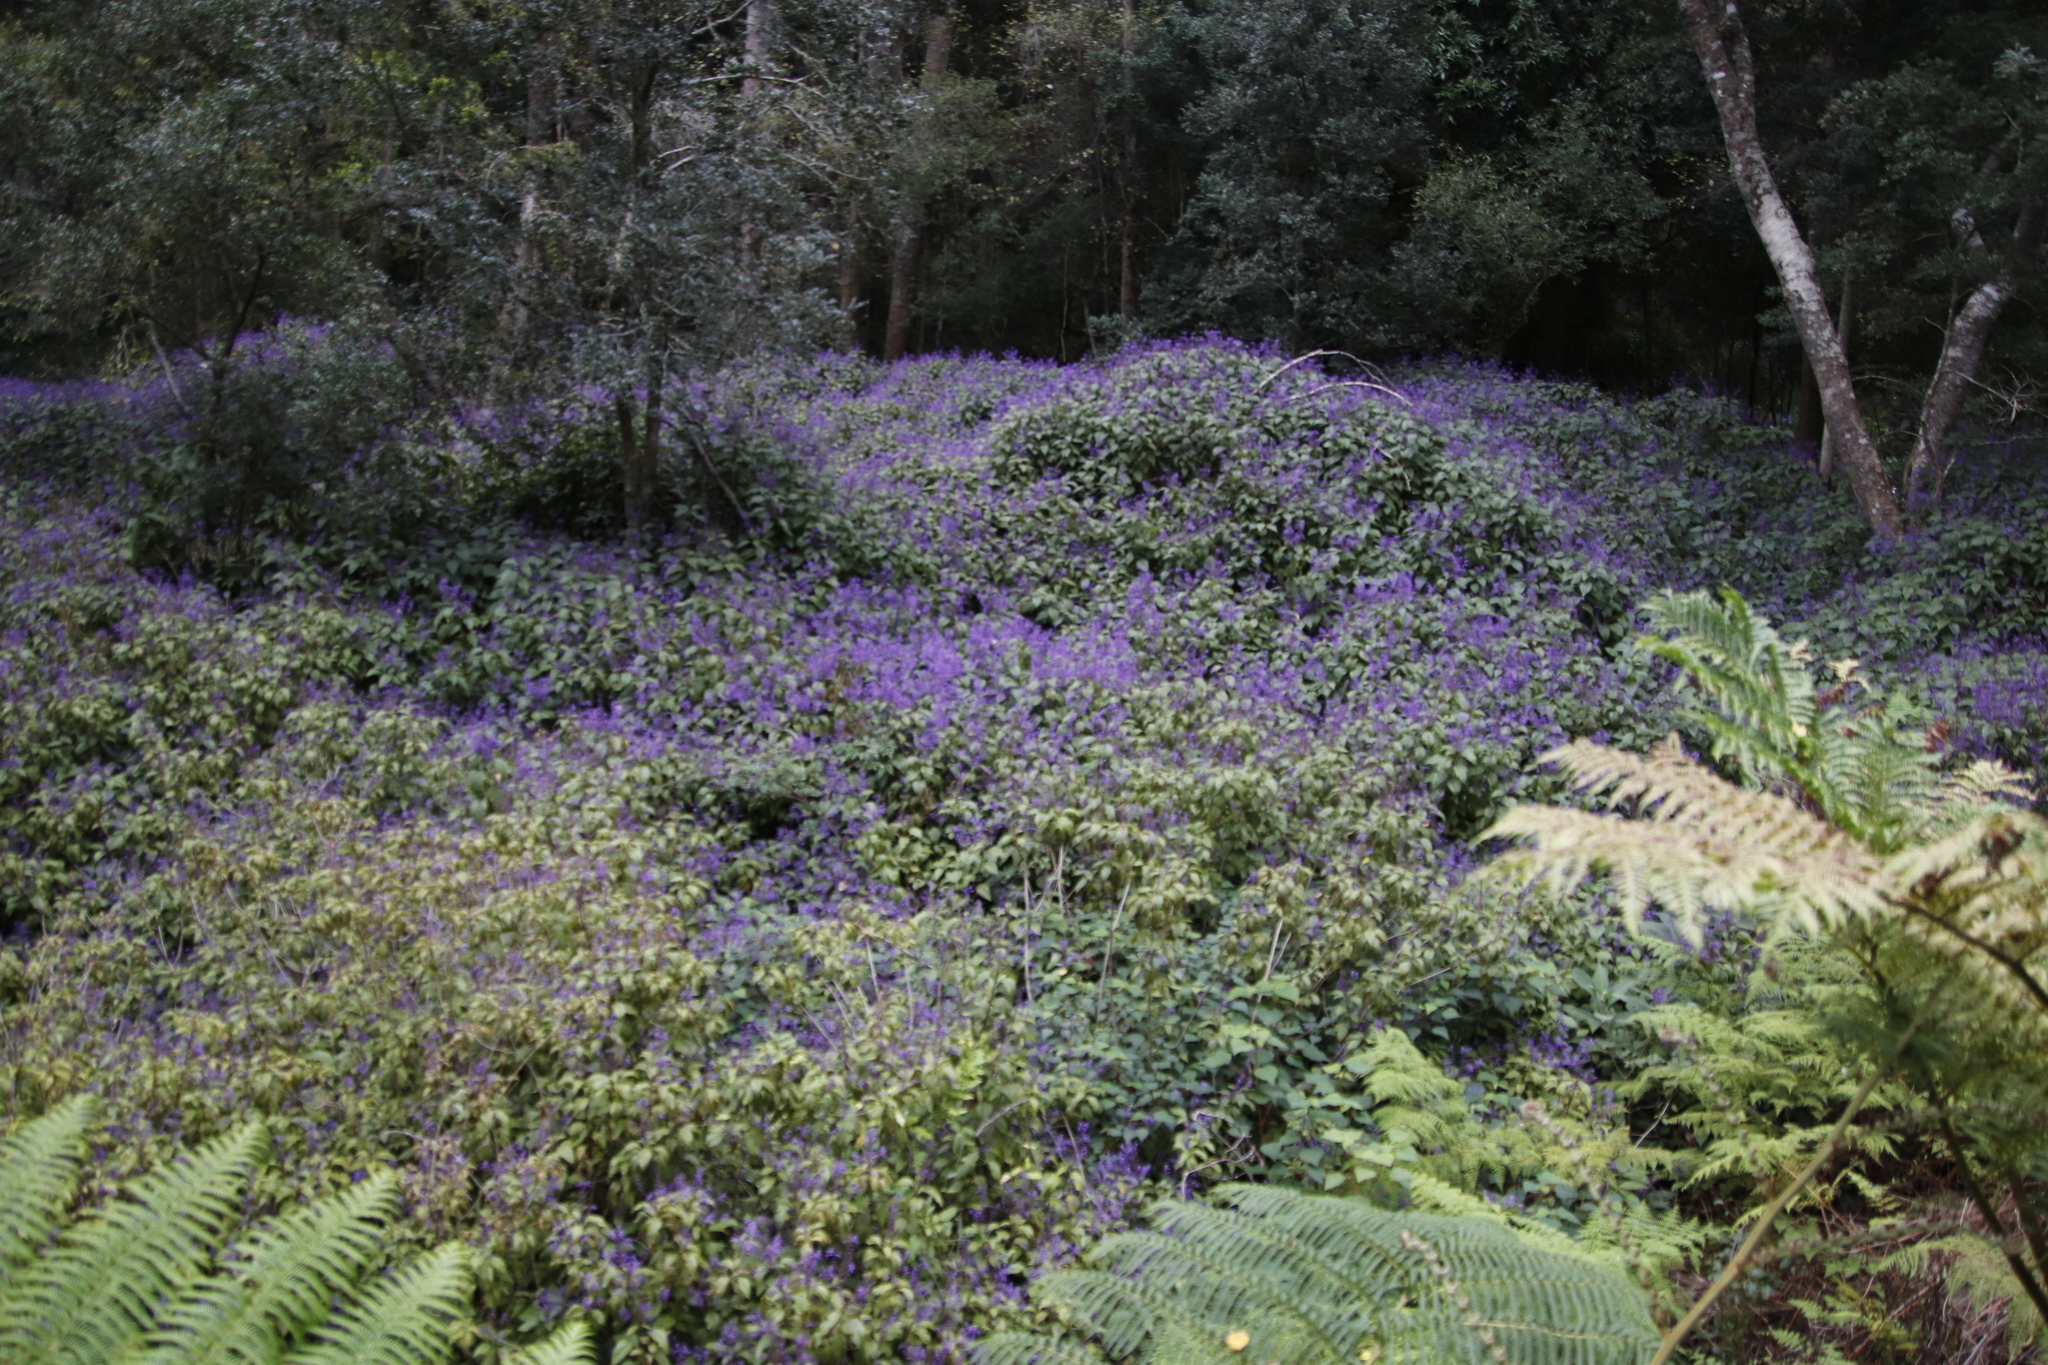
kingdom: Plantae
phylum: Tracheophyta
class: Magnoliopsida
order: Lamiales
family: Lamiaceae
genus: Plectranthus
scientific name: Plectranthus ecklonii
